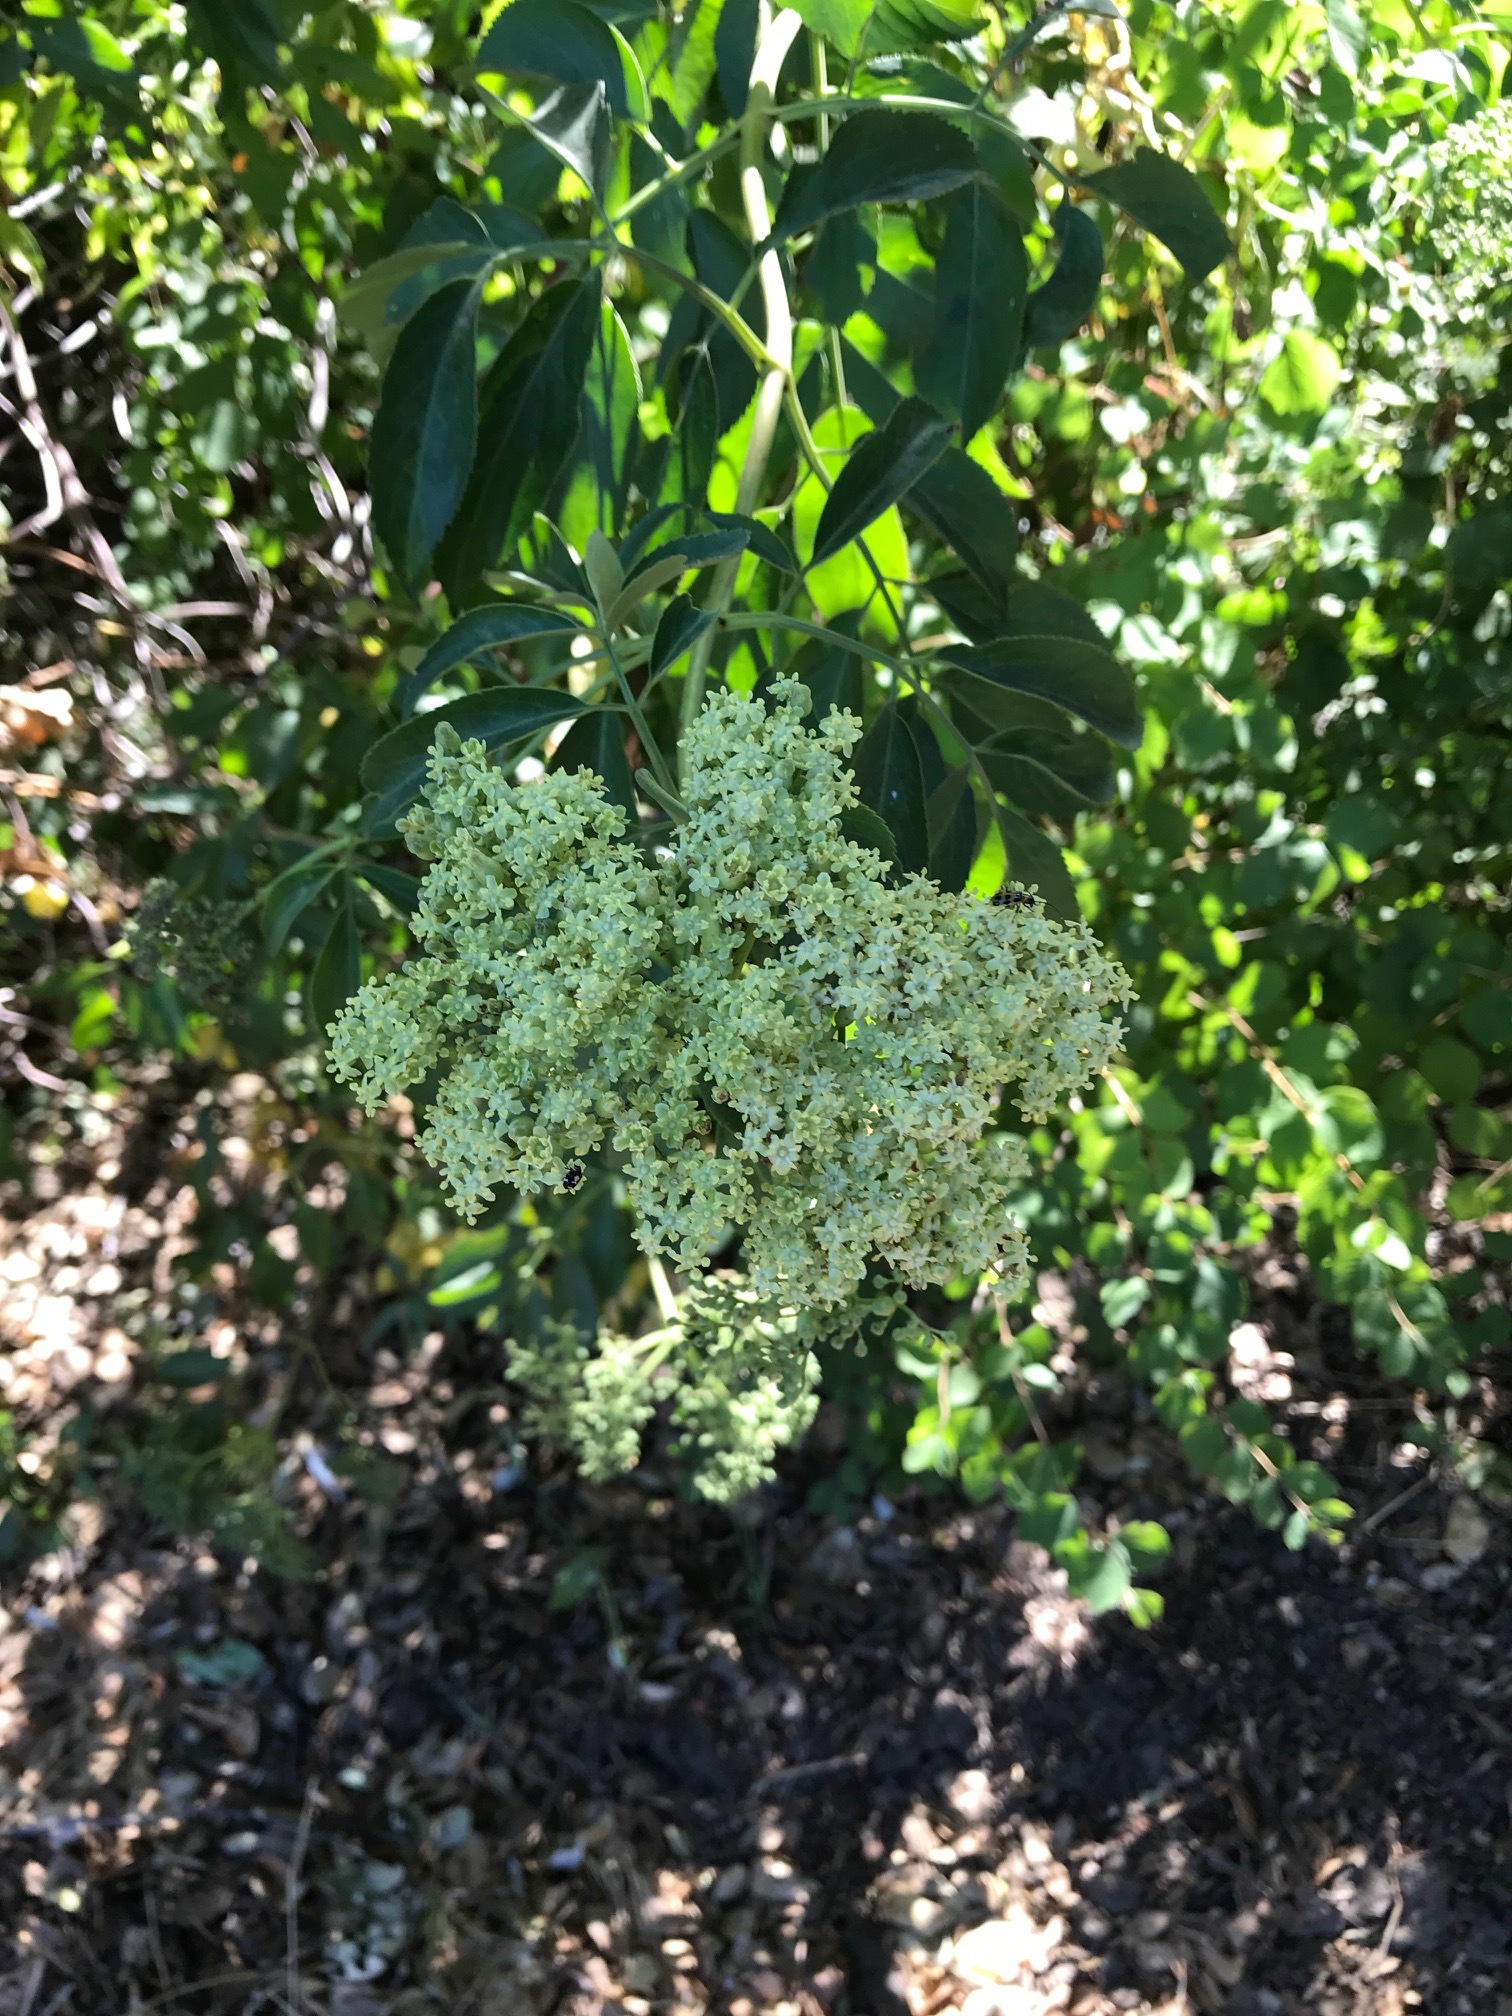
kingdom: Plantae
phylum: Tracheophyta
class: Magnoliopsida
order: Dipsacales
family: Viburnaceae
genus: Sambucus
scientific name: Sambucus cerulea
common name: Blue elder
